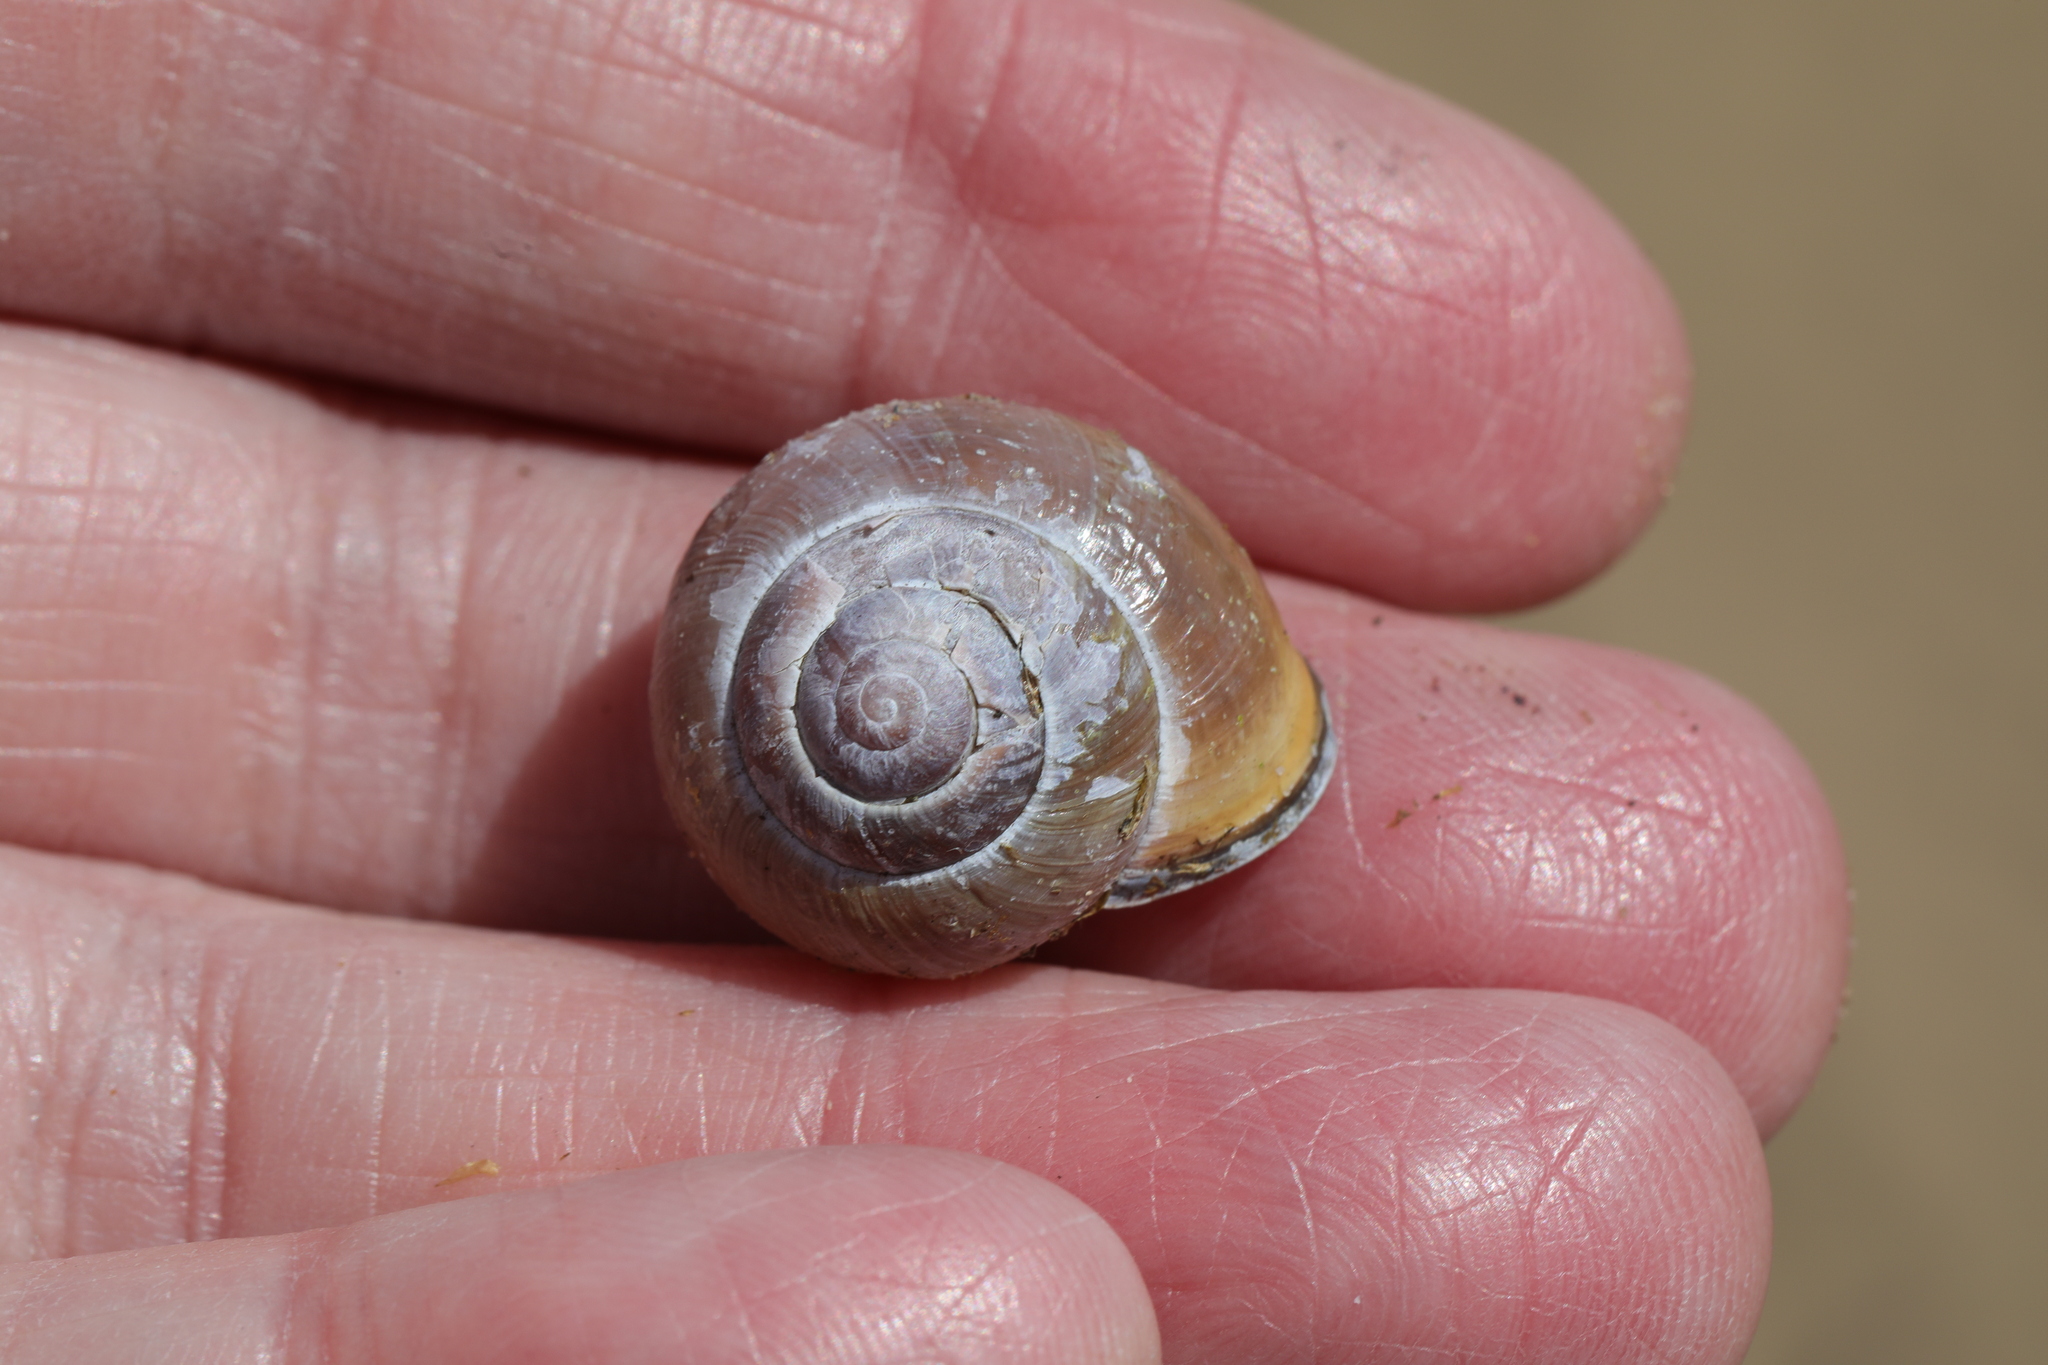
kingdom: Animalia
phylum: Mollusca
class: Gastropoda
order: Stylommatophora
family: Helicidae
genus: Cepaea
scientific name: Cepaea nemoralis
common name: Grovesnail
